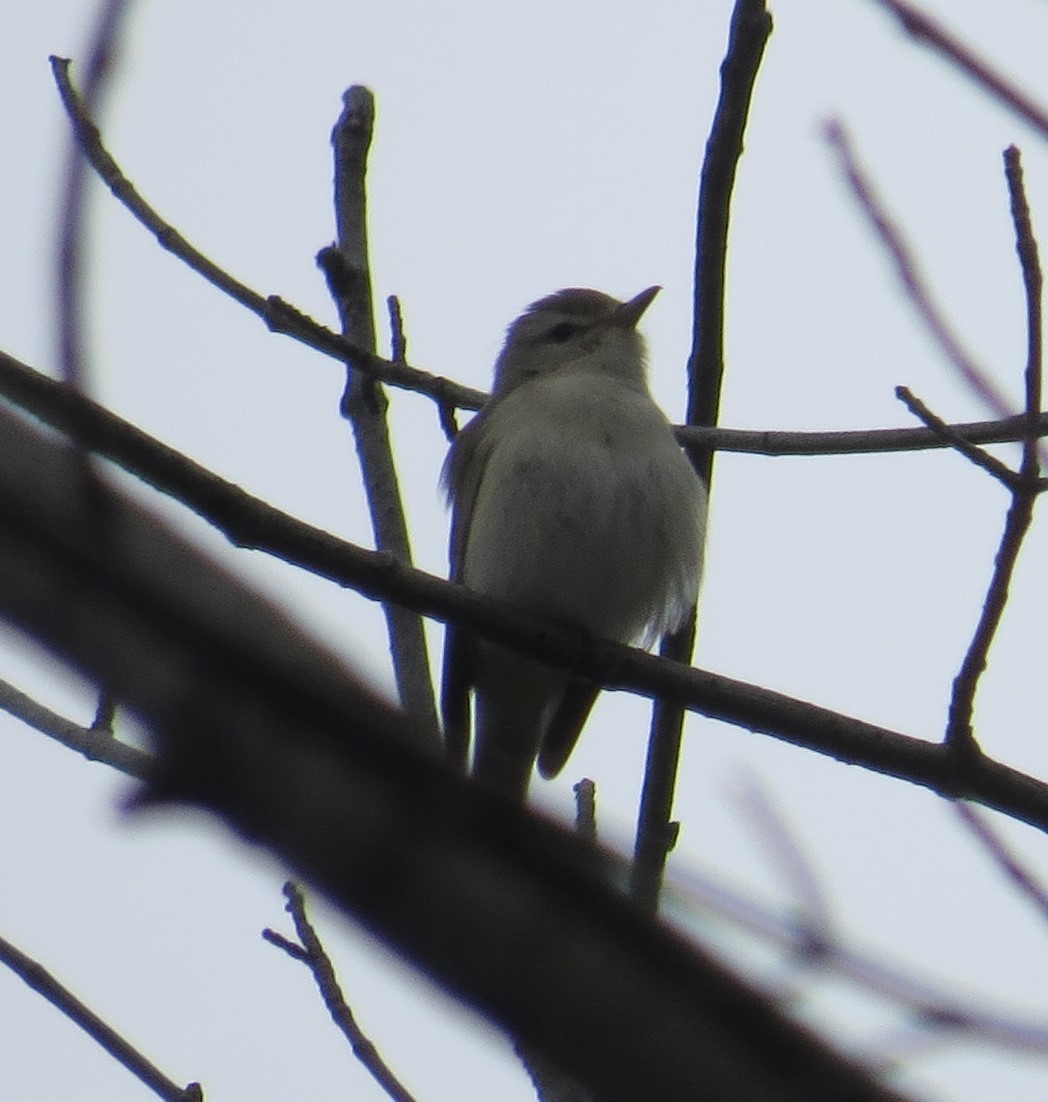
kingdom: Animalia
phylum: Chordata
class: Aves
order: Passeriformes
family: Vireonidae
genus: Vireo
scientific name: Vireo gilvus
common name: Warbling vireo
